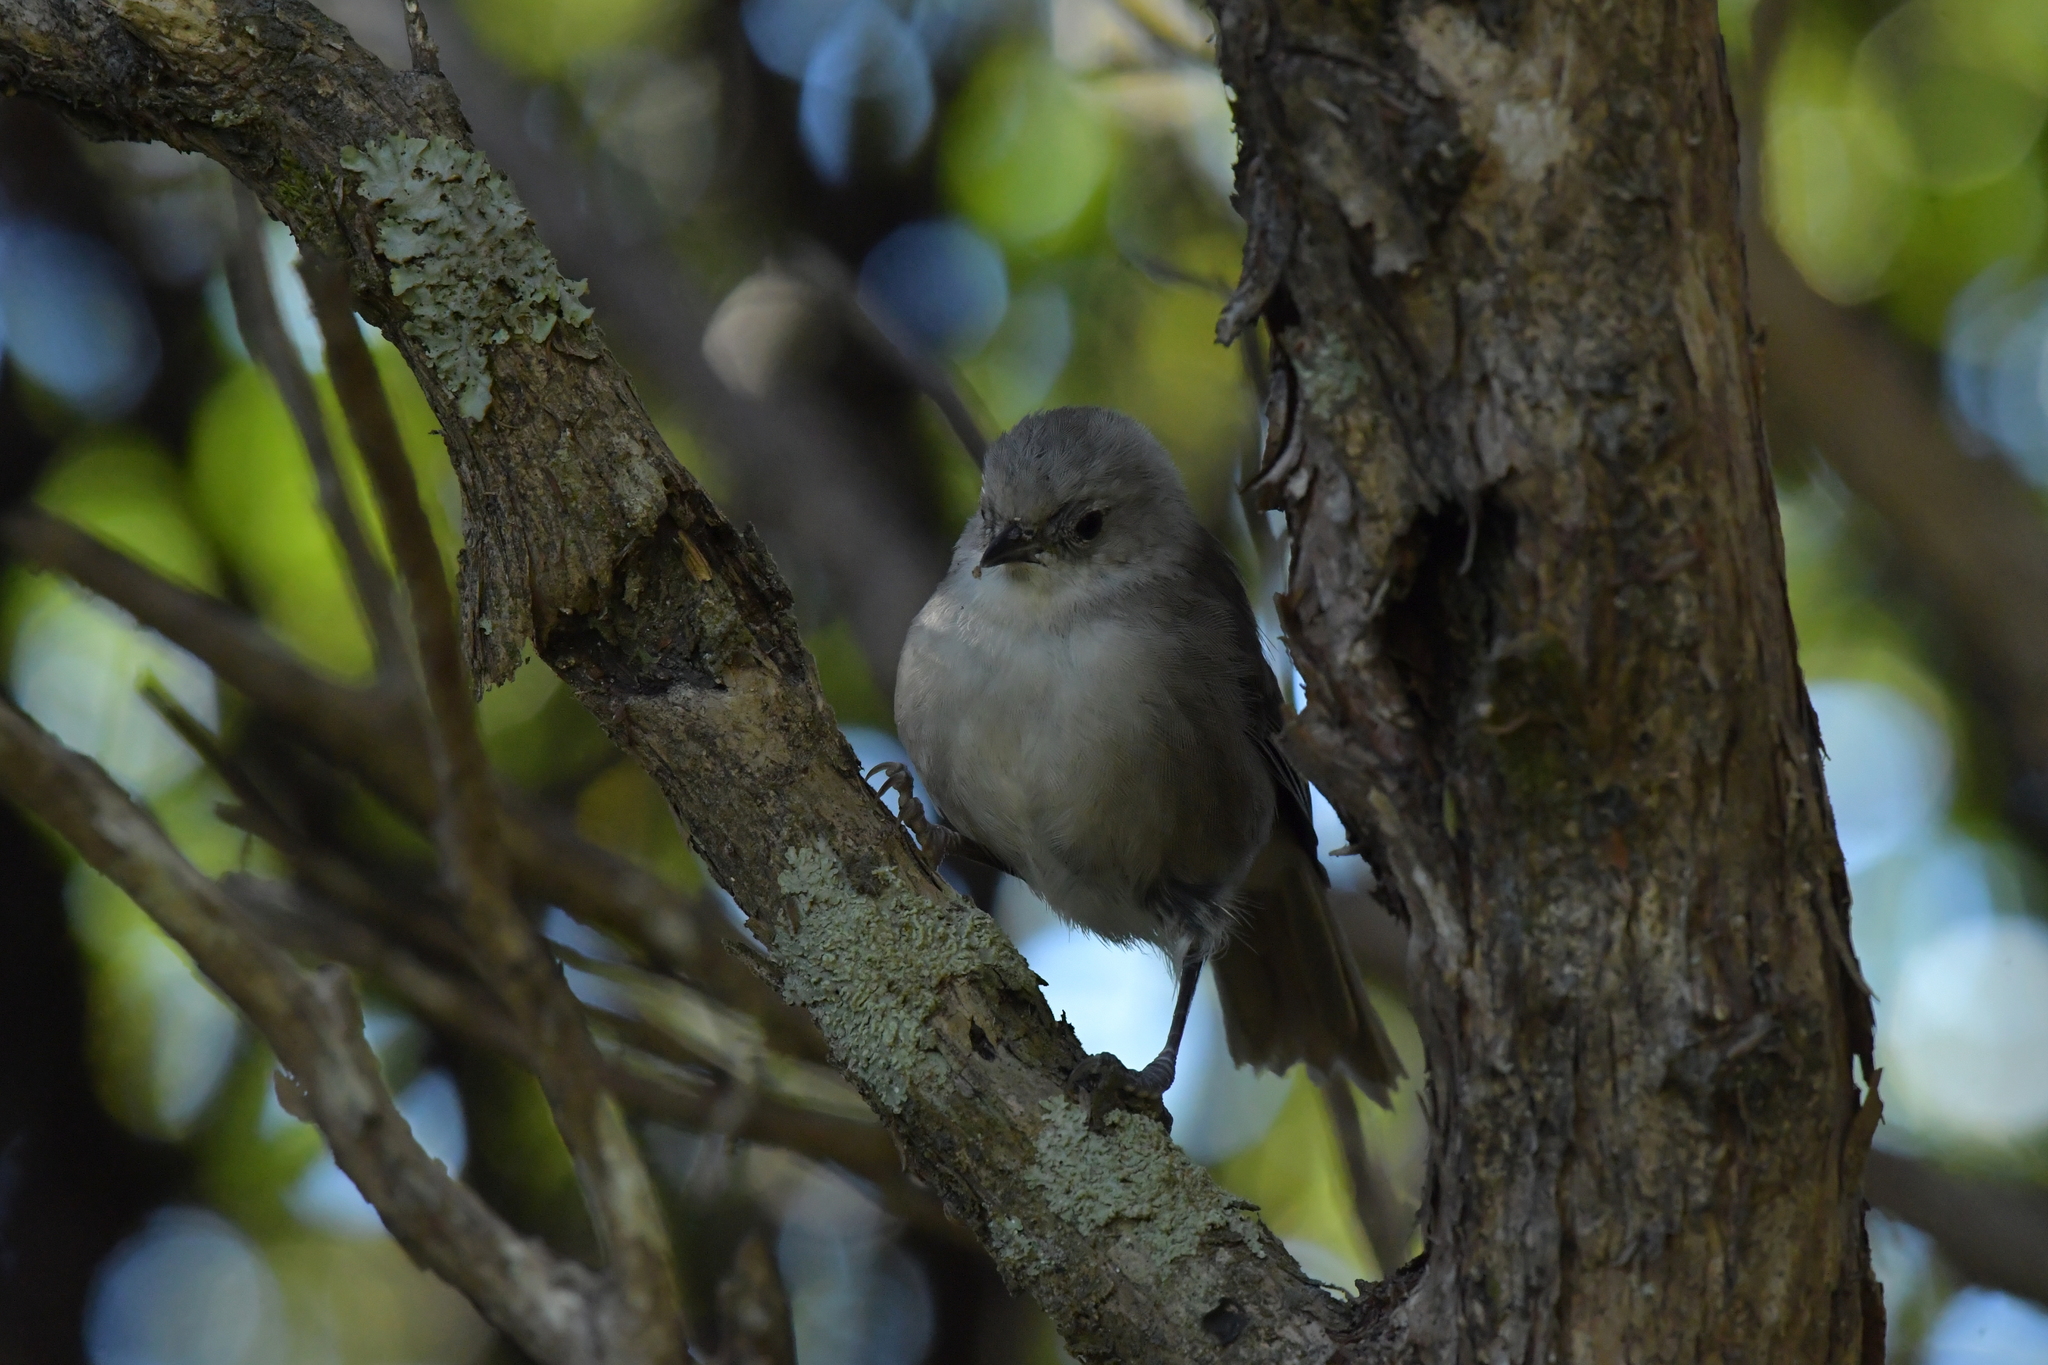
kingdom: Animalia
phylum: Chordata
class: Aves
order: Passeriformes
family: Acanthizidae
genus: Mohoua
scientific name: Mohoua albicilla
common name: Whitehead
